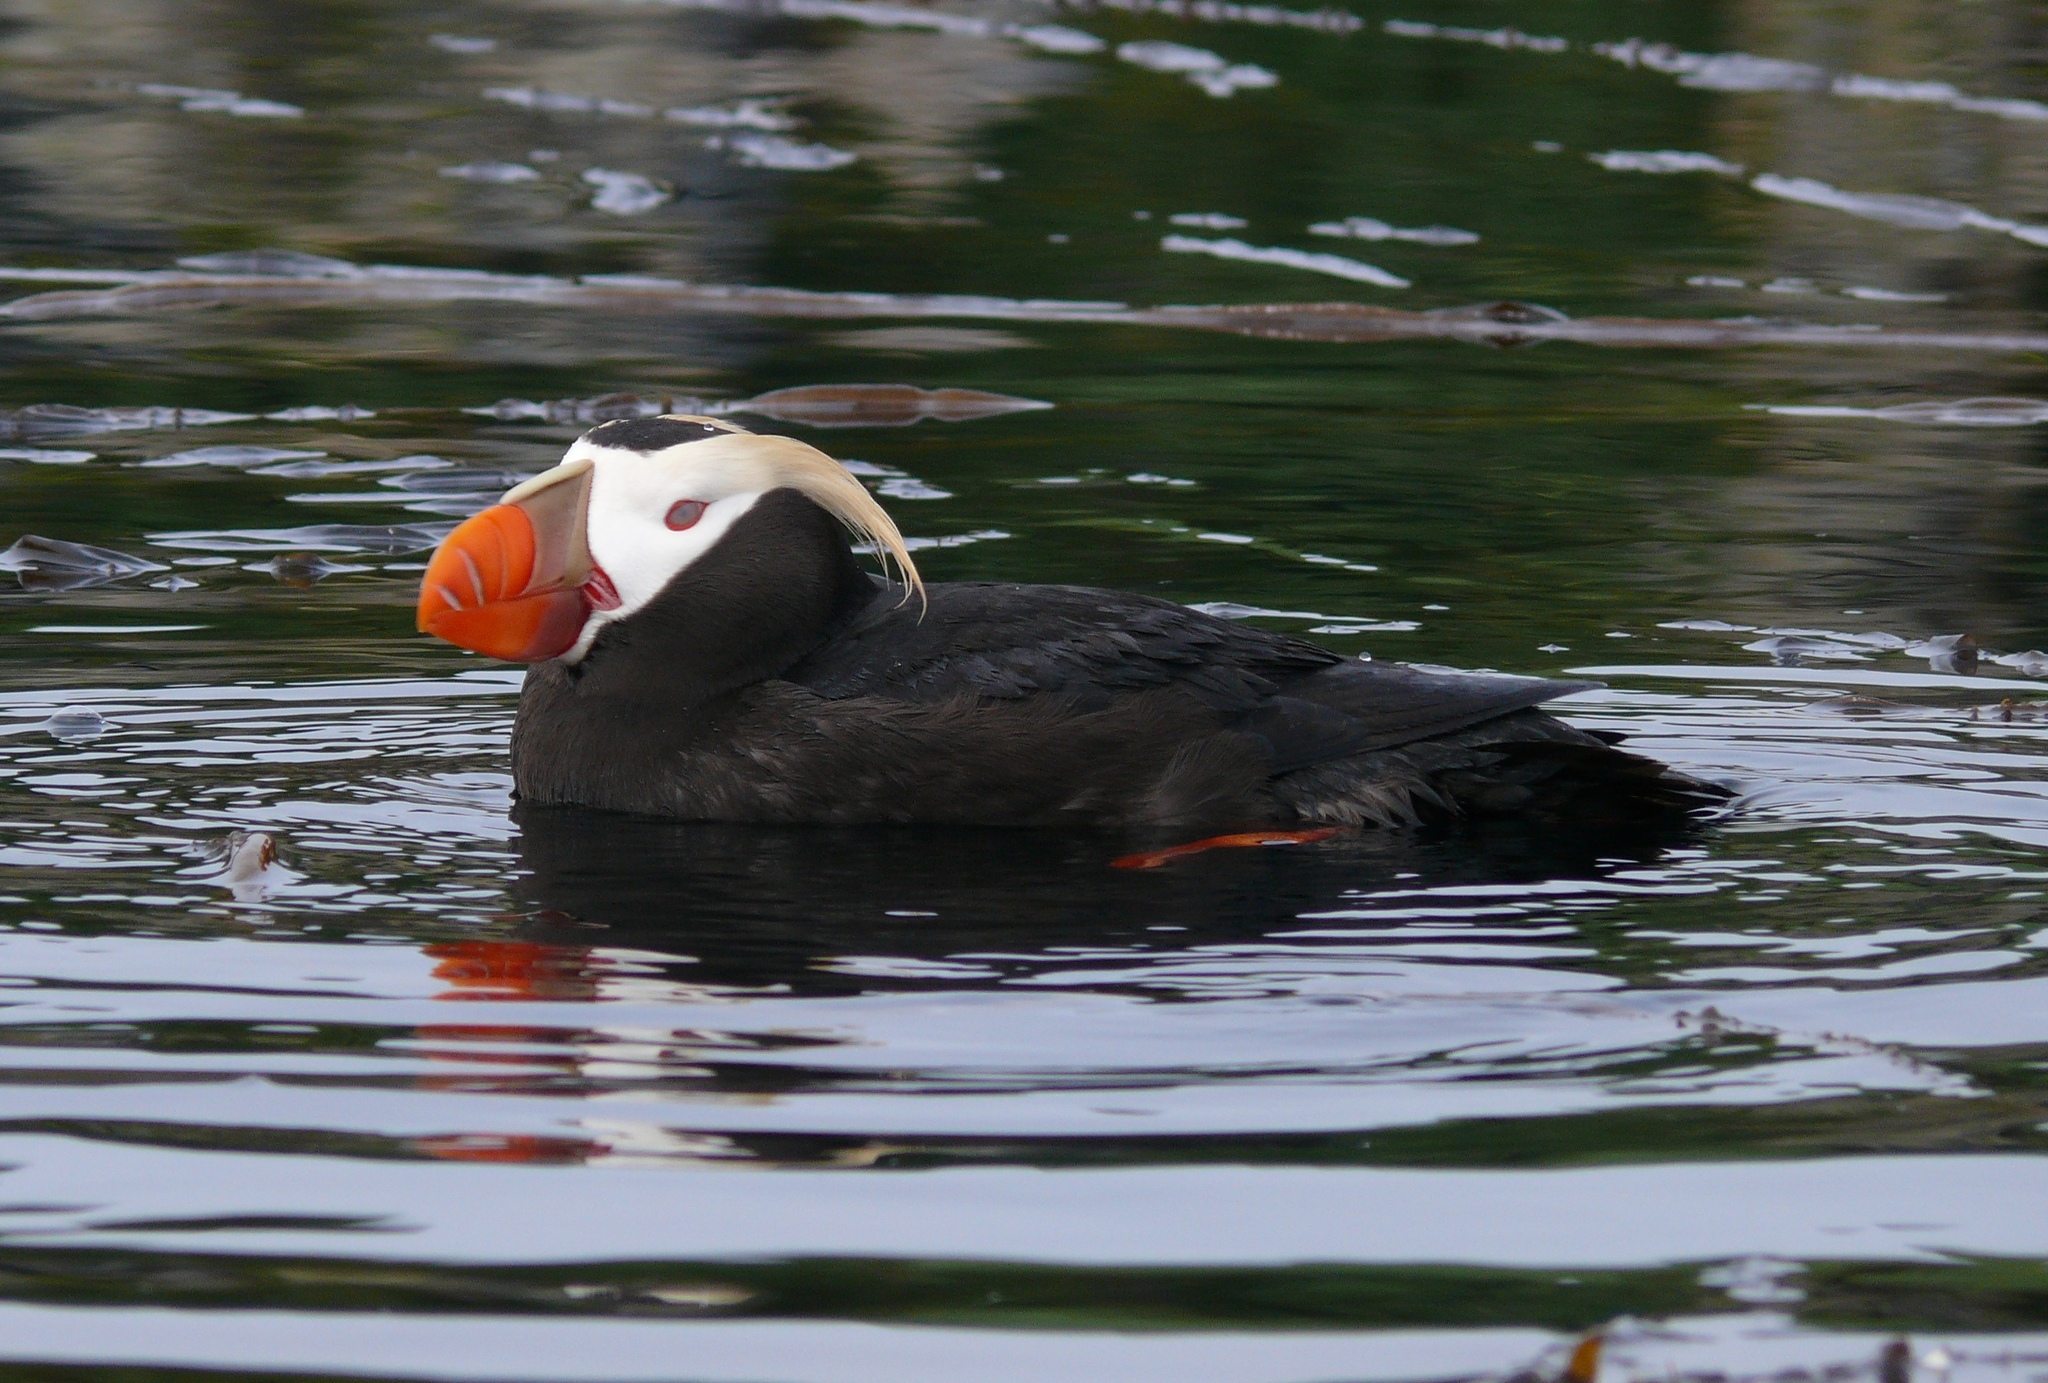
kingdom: Animalia
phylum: Chordata
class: Aves
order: Charadriiformes
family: Alcidae
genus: Fratercula
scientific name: Fratercula cirrhata
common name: Tufted puffin
